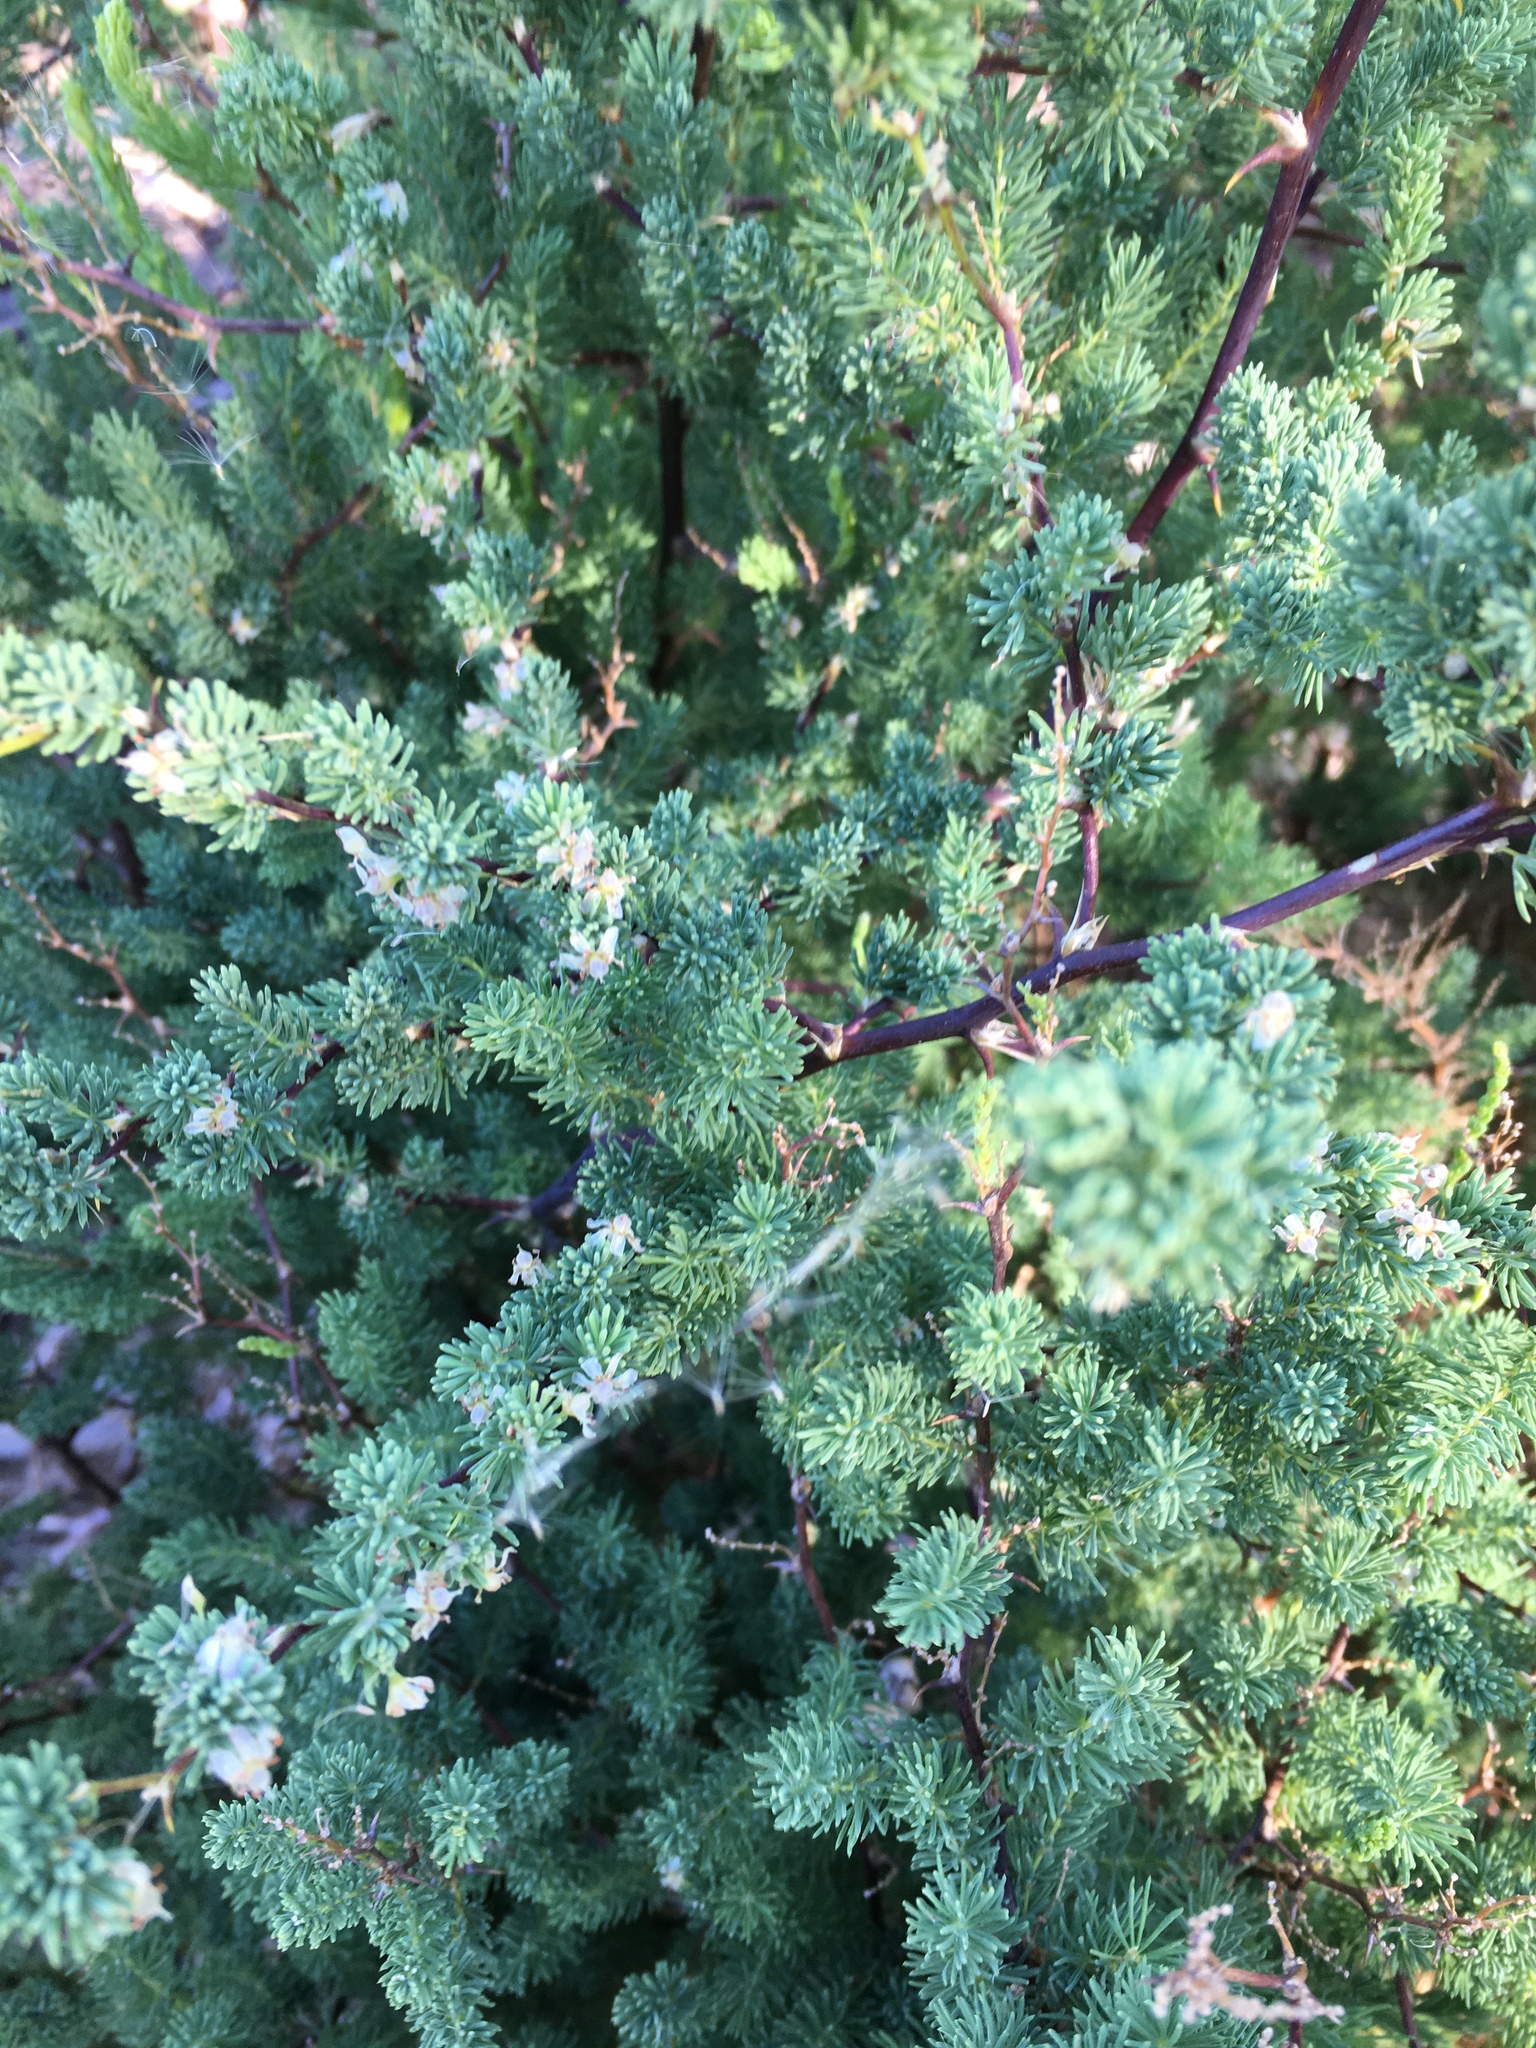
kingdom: Plantae
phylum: Tracheophyta
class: Liliopsida
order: Asparagales
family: Asparagaceae
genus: Asparagus
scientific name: Asparagus rubicundus
